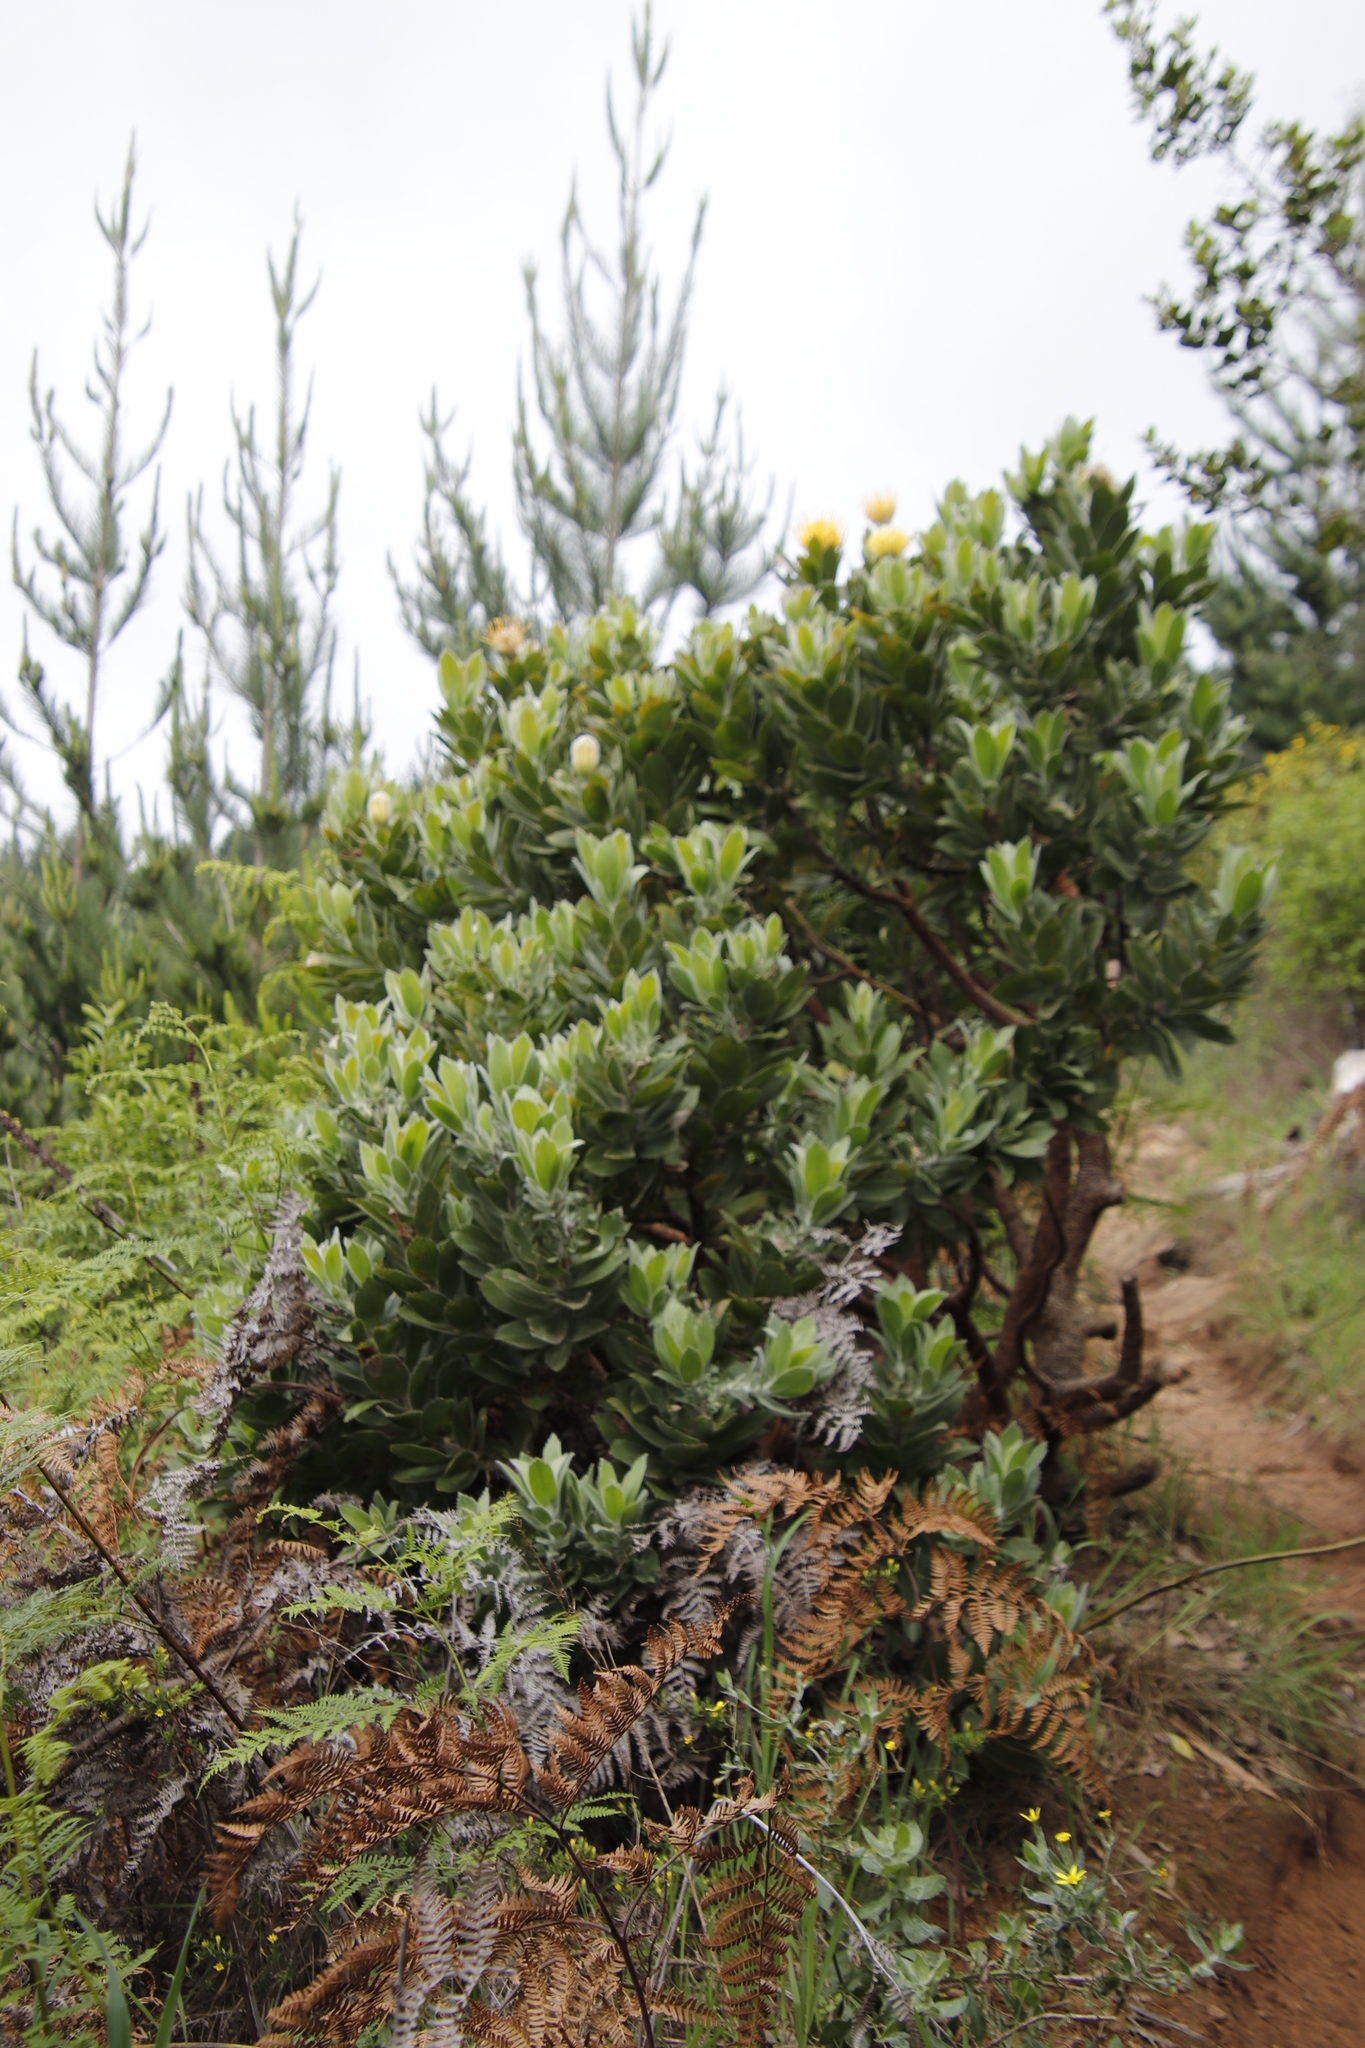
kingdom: Plantae
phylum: Tracheophyta
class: Magnoliopsida
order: Proteales
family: Proteaceae
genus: Leucospermum
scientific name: Leucospermum conocarpodendron
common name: Tree pincushion
